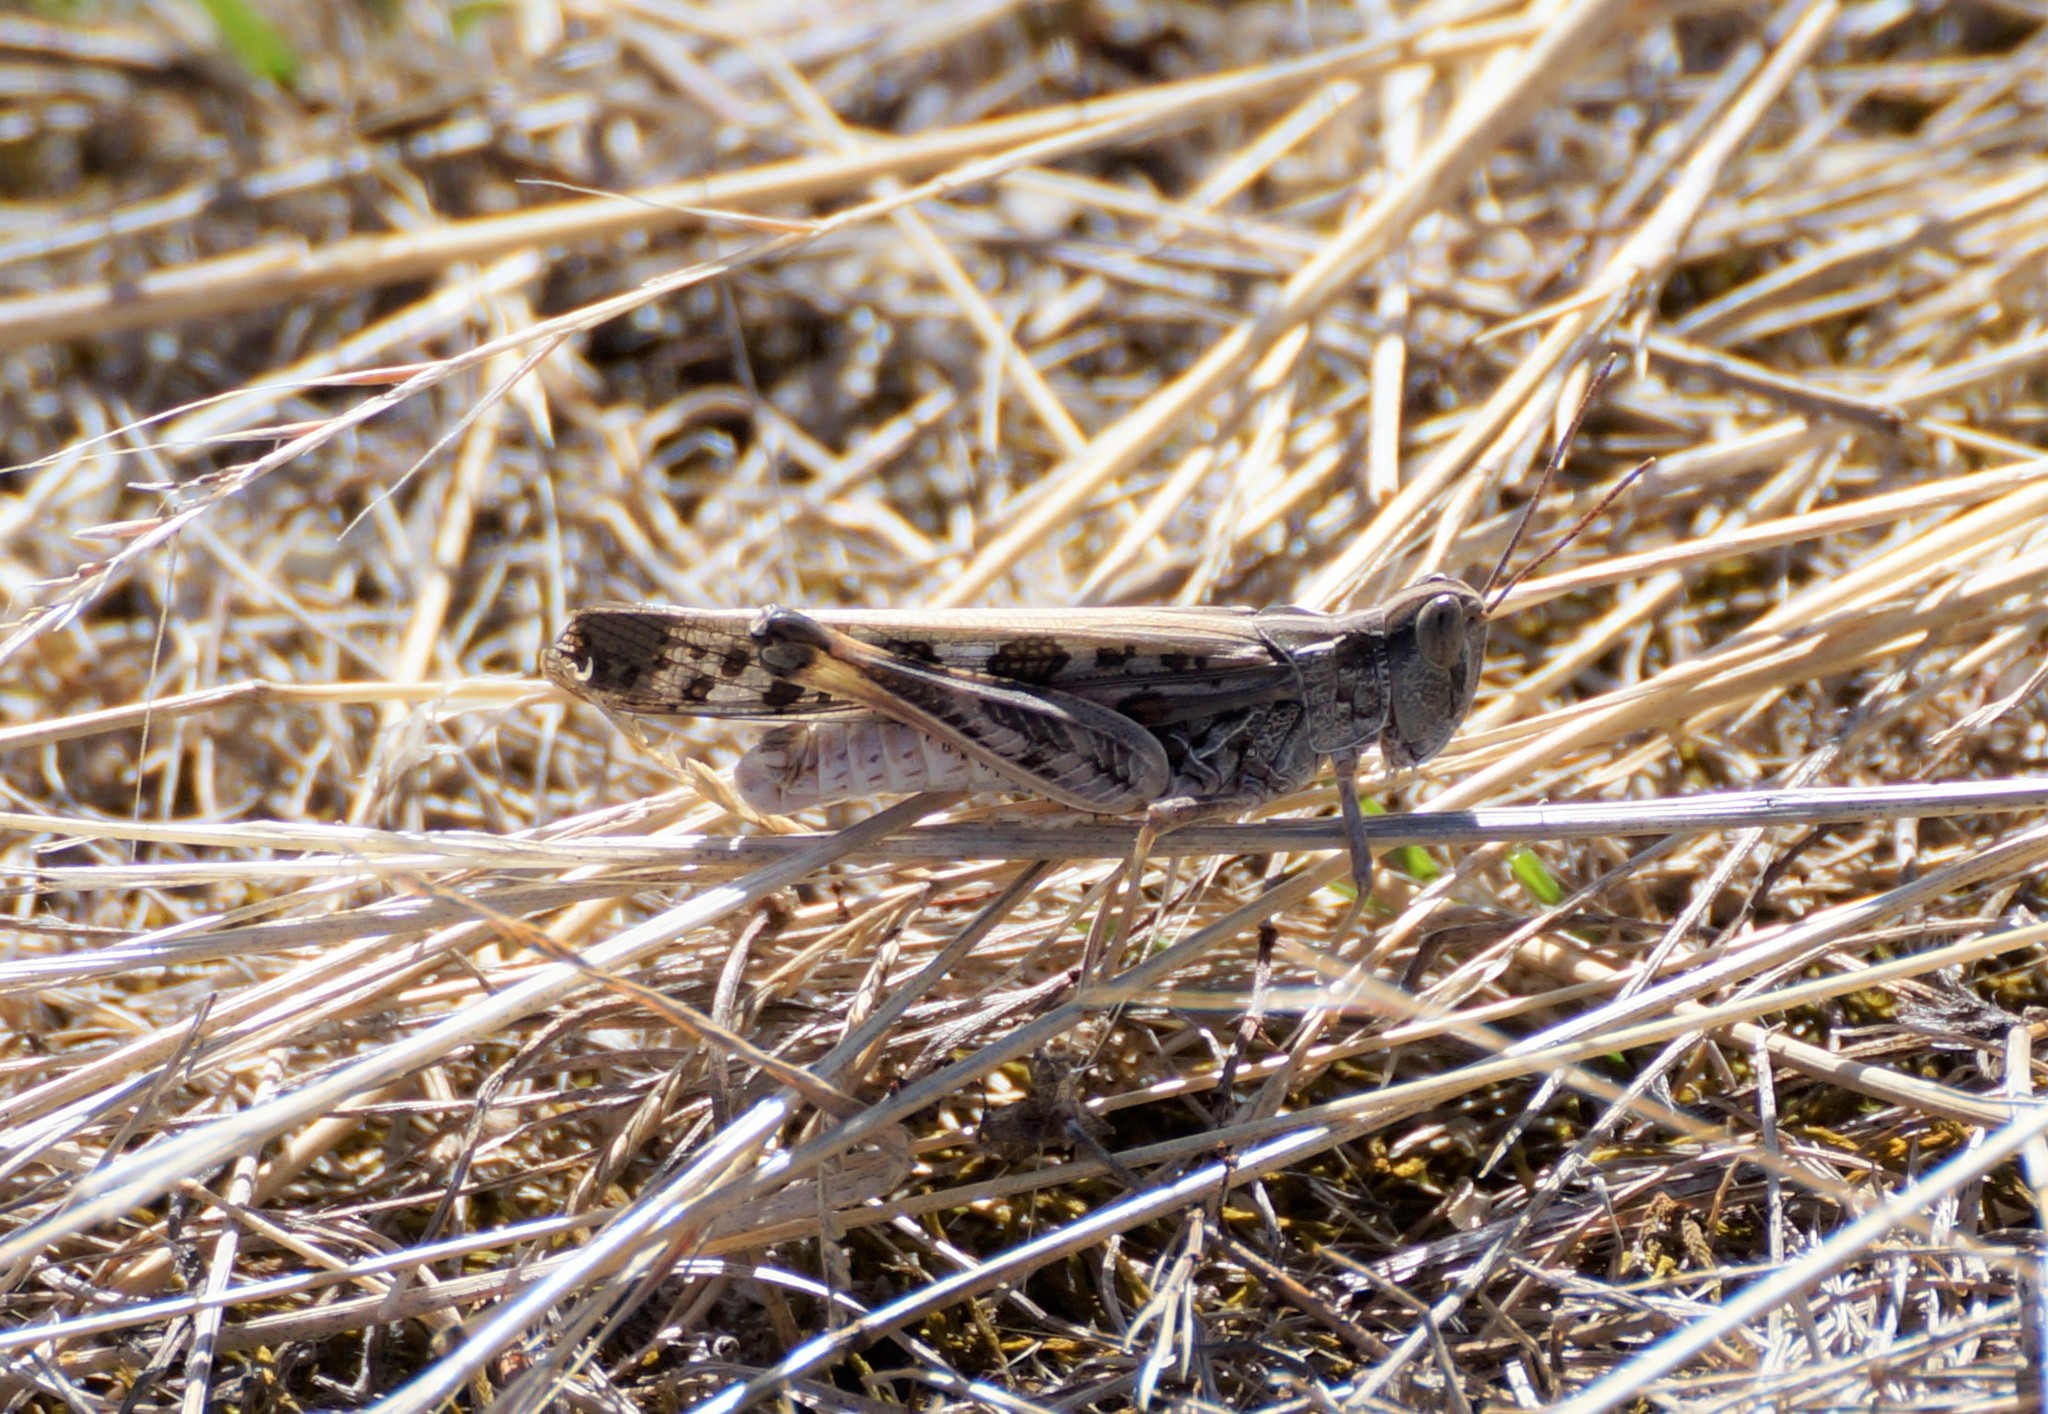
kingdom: Animalia
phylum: Arthropoda
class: Insecta
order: Orthoptera
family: Acrididae
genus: Chortoicetes
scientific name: Chortoicetes terminifera
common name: Australian plague locust
